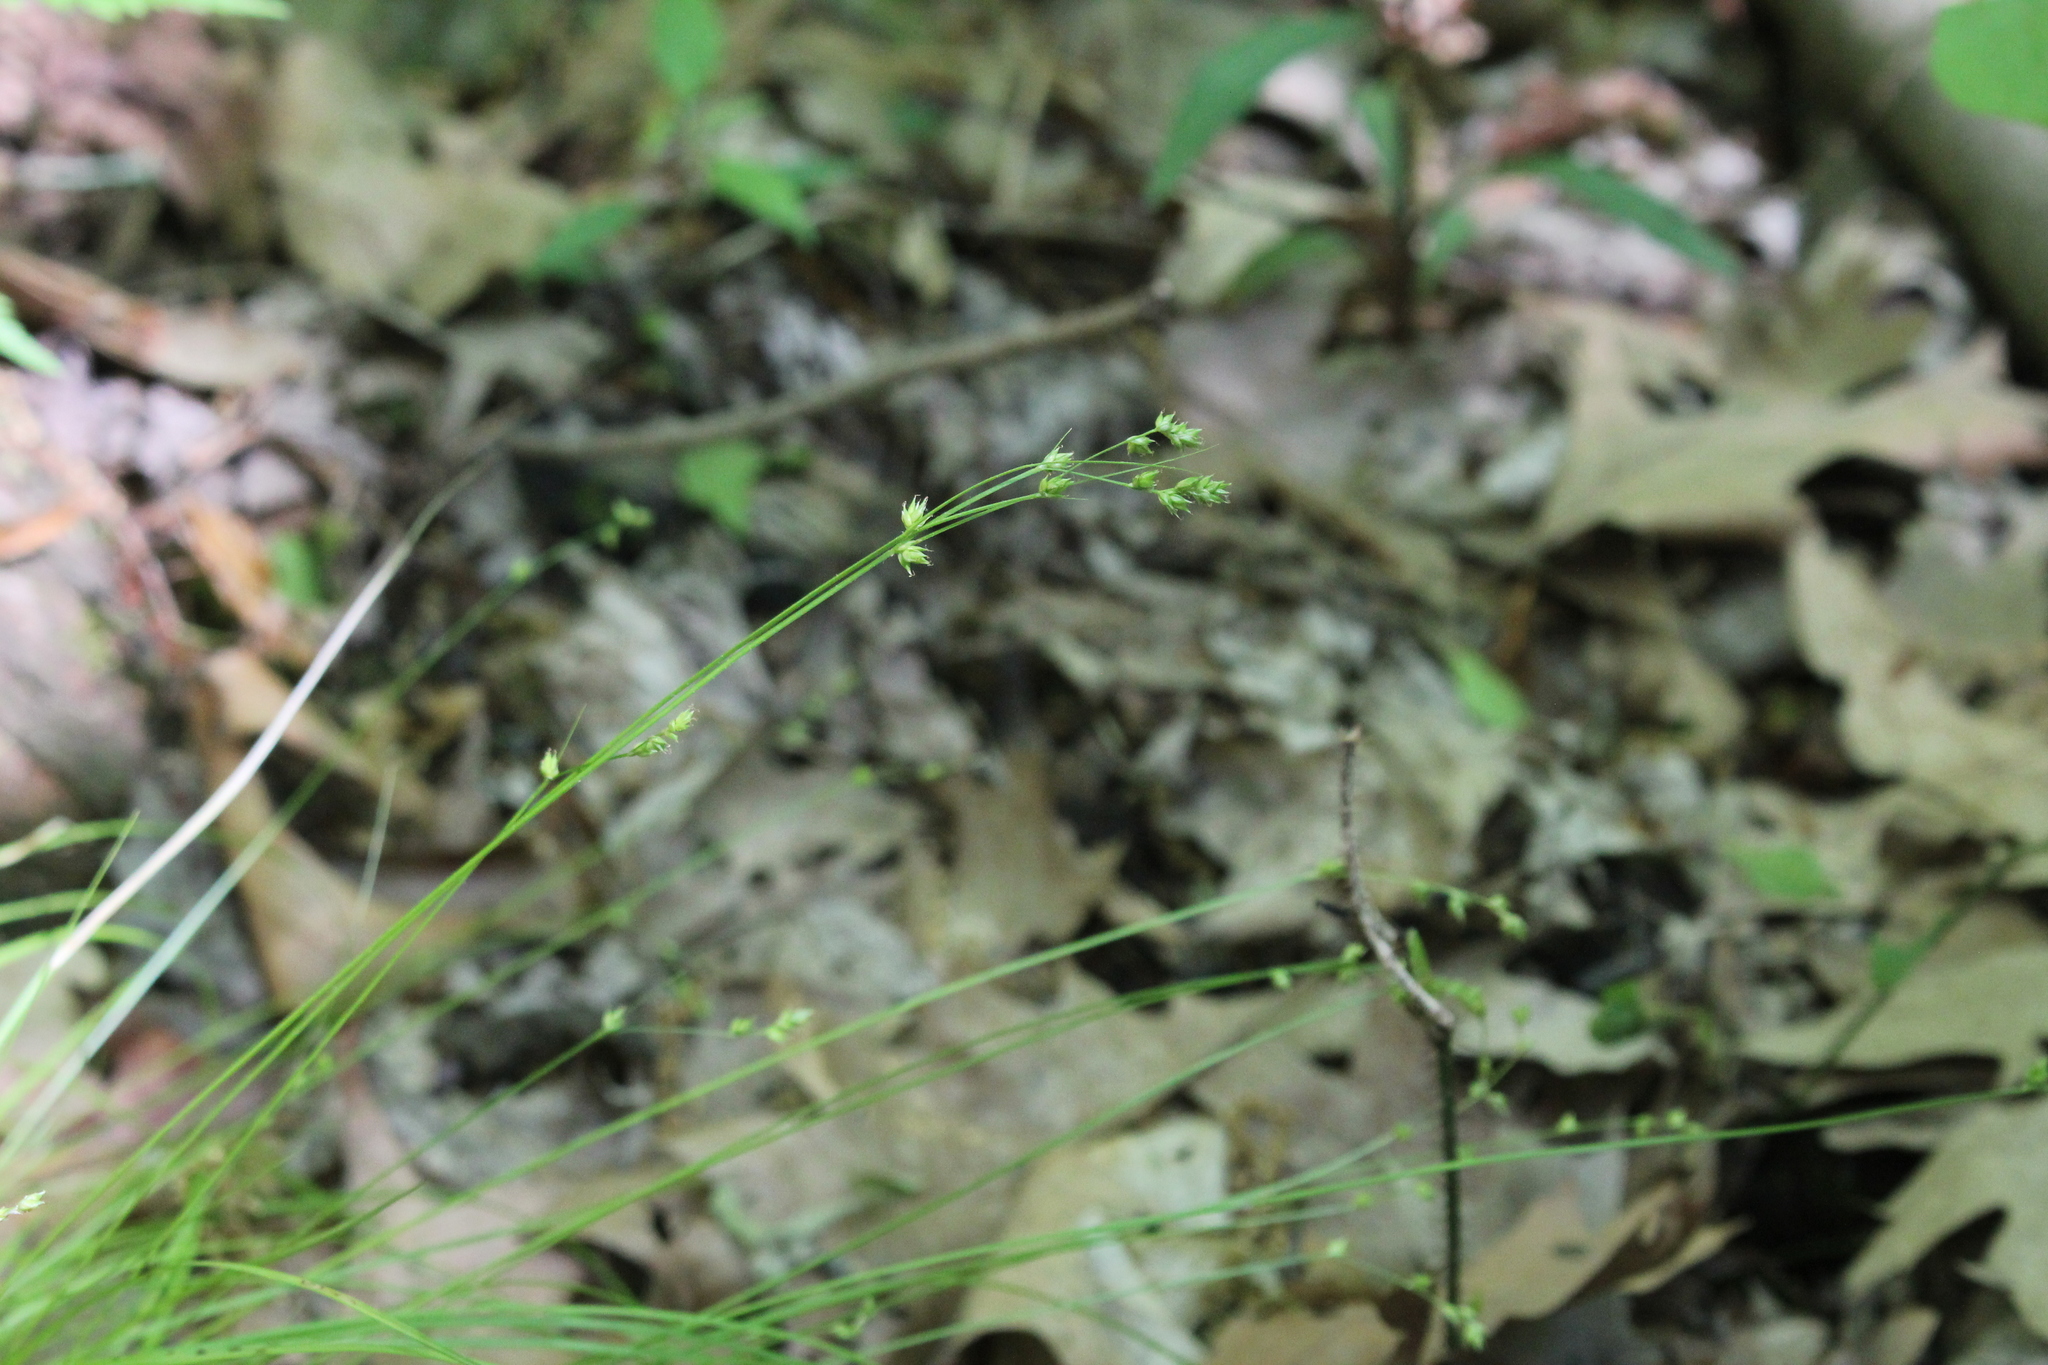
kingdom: Plantae
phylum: Tracheophyta
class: Liliopsida
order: Poales
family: Cyperaceae
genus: Carex
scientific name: Carex brunnescens
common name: Brown sedge
